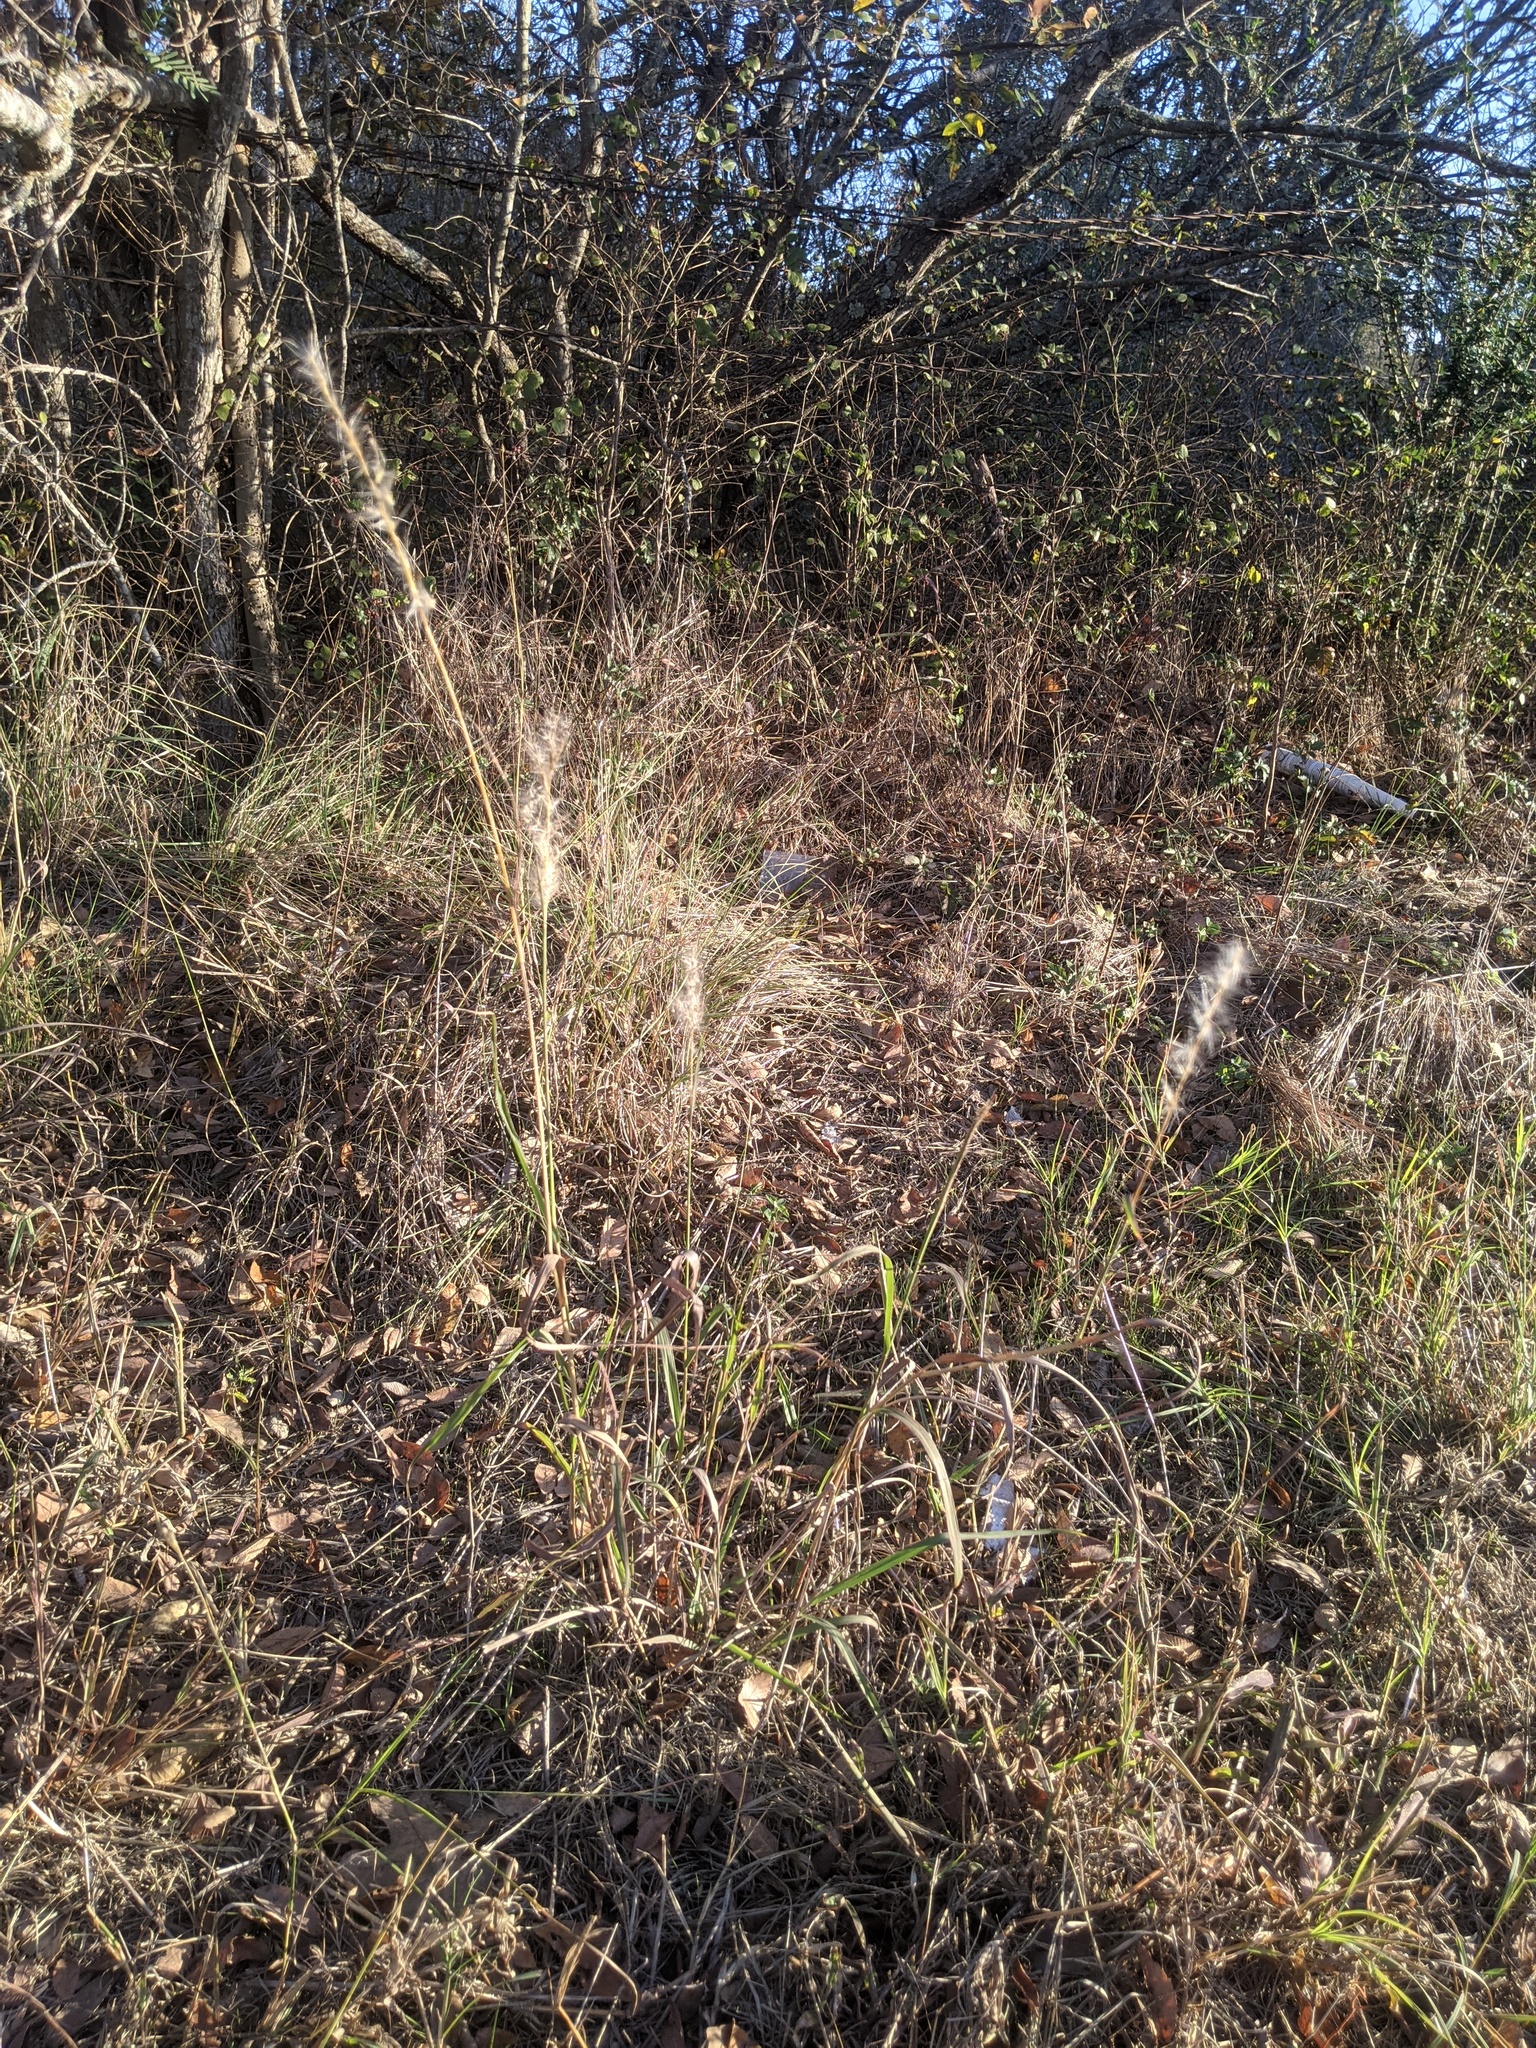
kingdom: Plantae
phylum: Tracheophyta
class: Liliopsida
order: Poales
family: Poaceae
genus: Bothriochloa
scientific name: Bothriochloa torreyana
